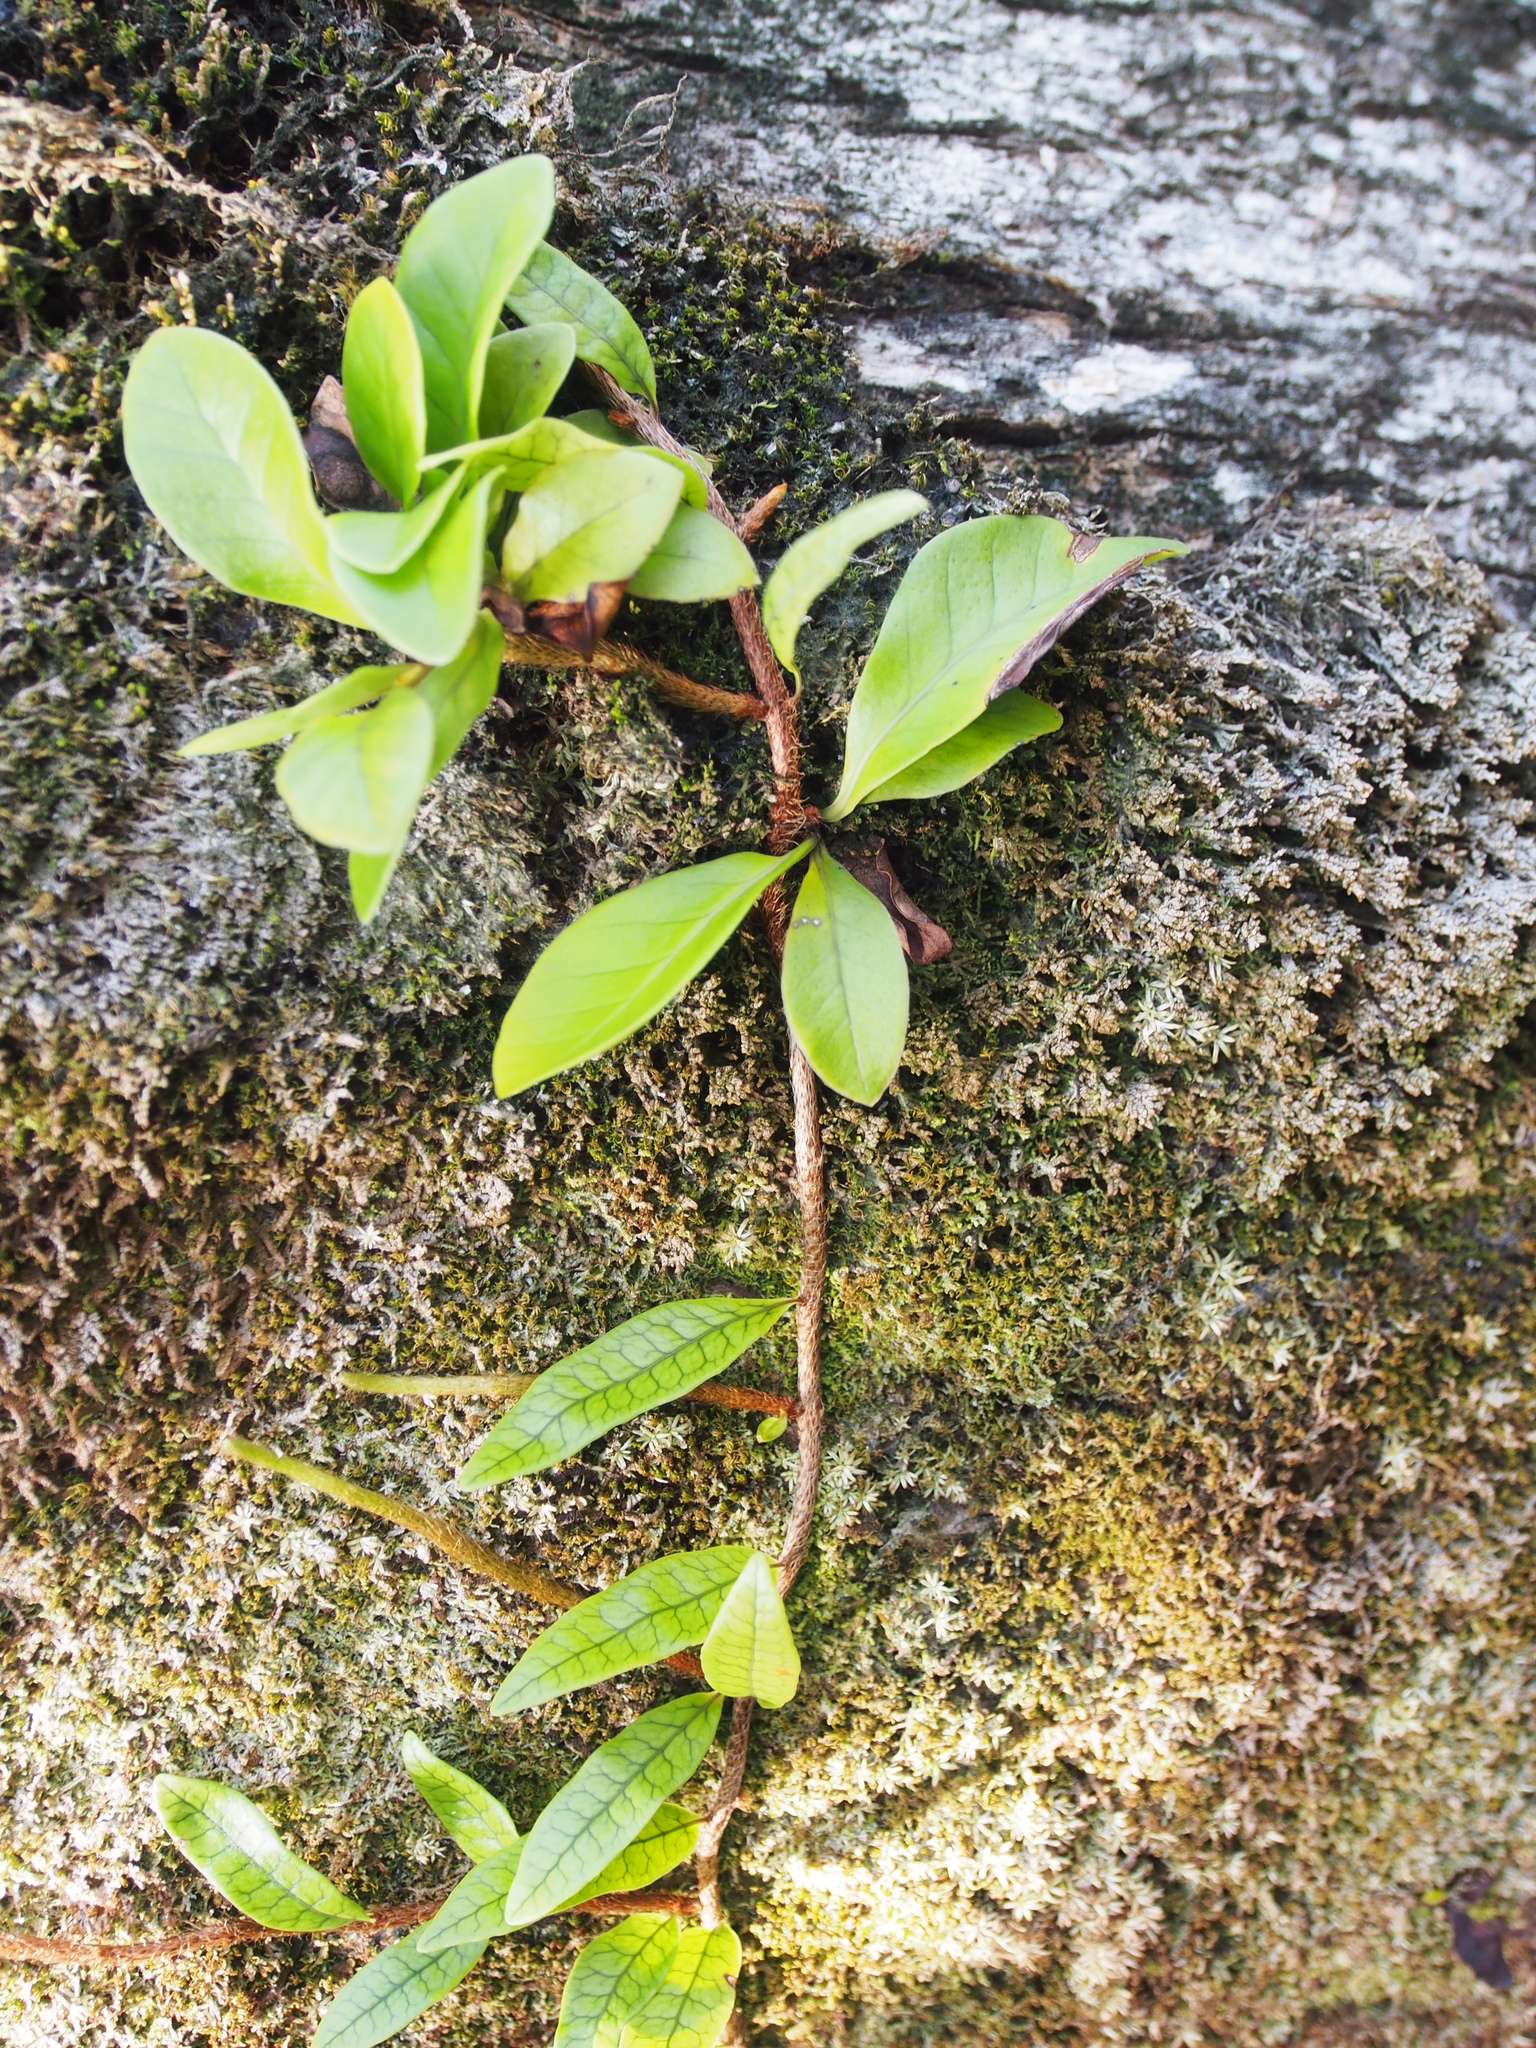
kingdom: Plantae
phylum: Tracheophyta
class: Polypodiopsida
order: Polypodiales
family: Polypodiaceae
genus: Microgramma
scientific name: Microgramma lycopodioides
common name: Bastard catclaw
